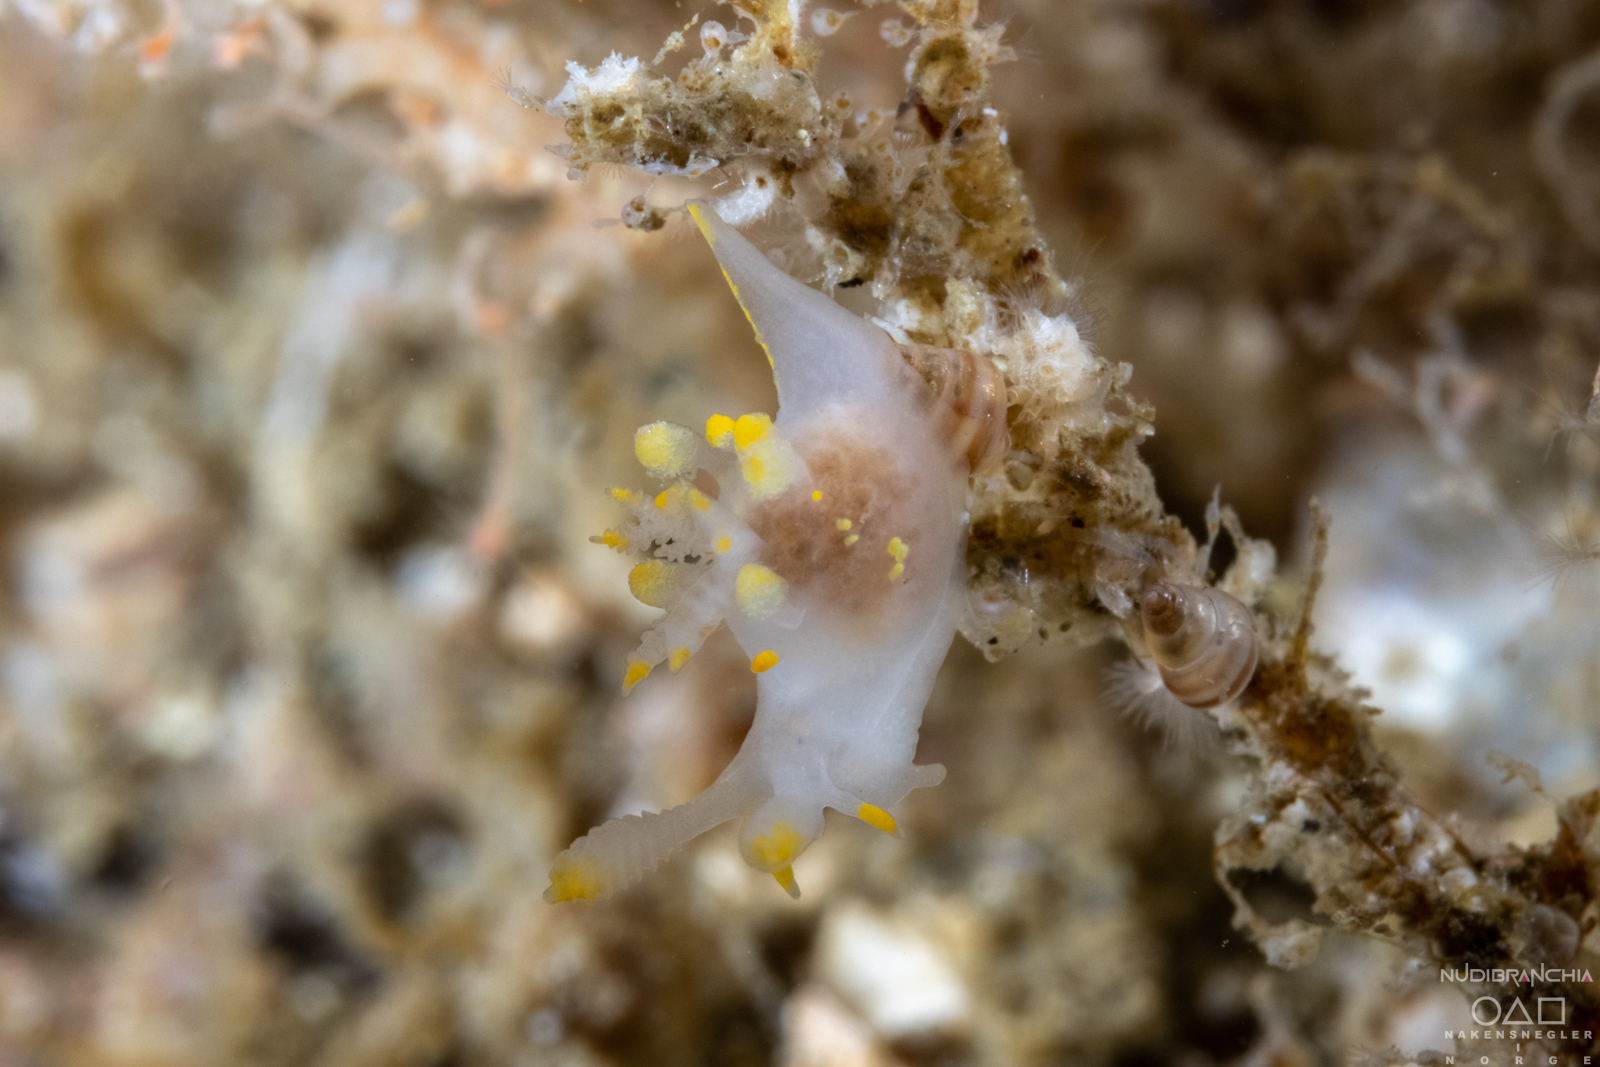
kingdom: Animalia
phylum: Mollusca
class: Gastropoda
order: Nudibranchia
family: Goniodorididae
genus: Ancula
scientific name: Ancula gibbosa
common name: Atlantic ancula
